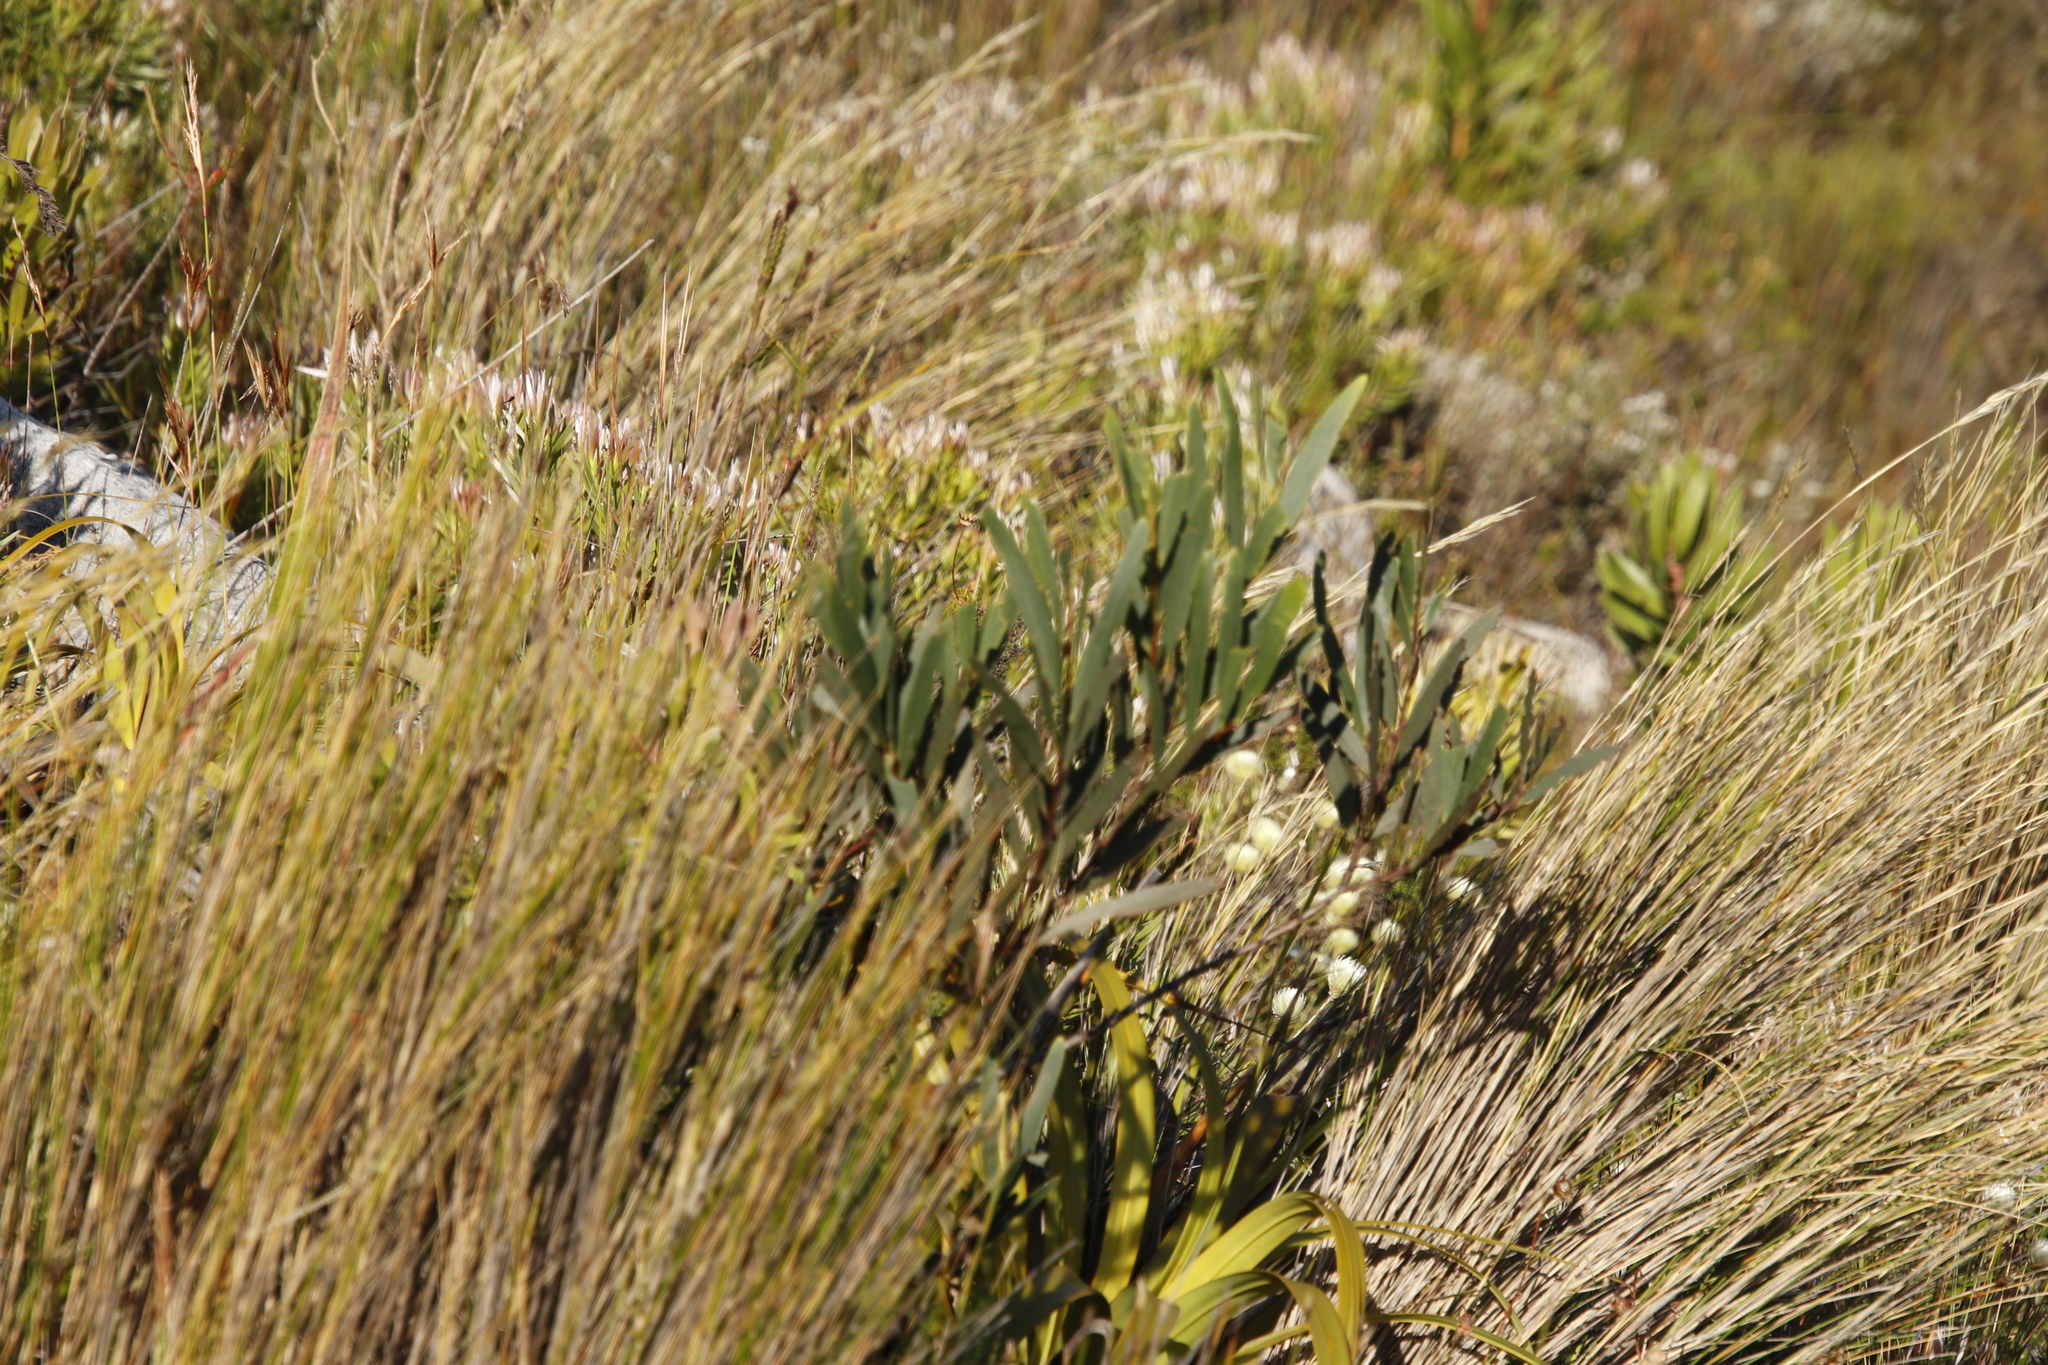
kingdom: Plantae
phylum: Tracheophyta
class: Magnoliopsida
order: Fabales
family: Fabaceae
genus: Acacia
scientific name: Acacia longifolia
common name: Sydney golden wattle
